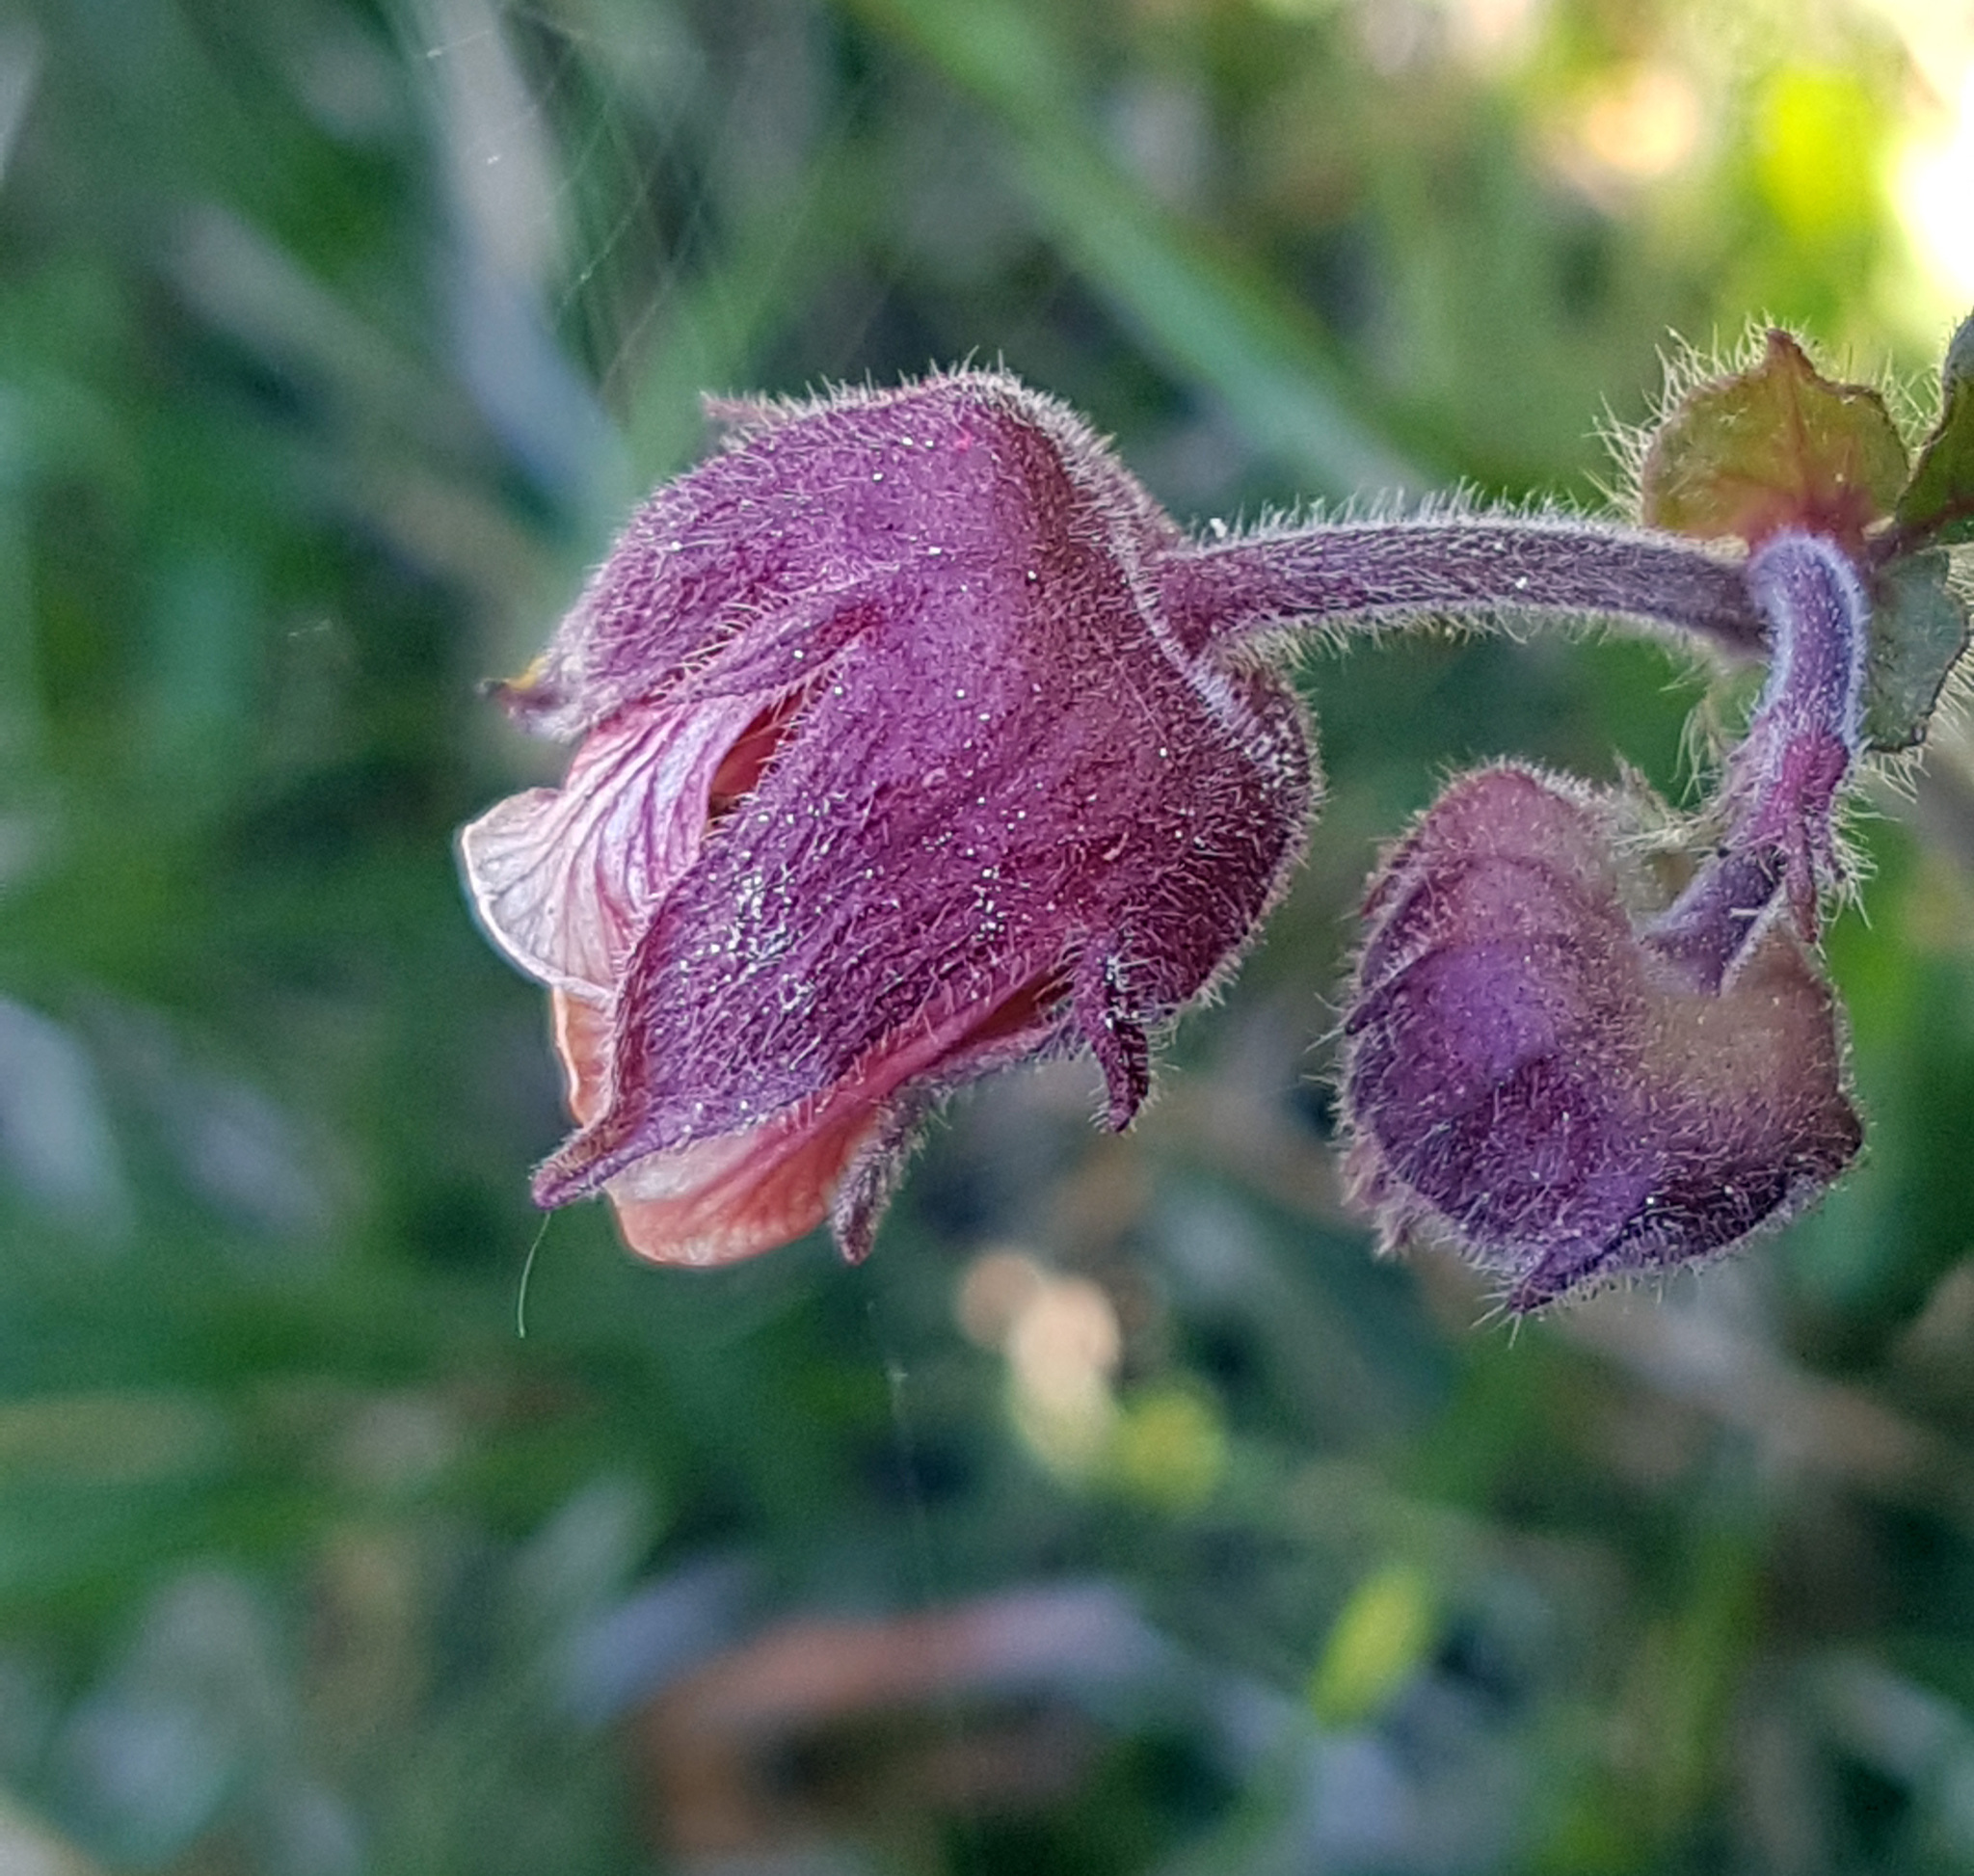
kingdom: Plantae
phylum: Tracheophyta
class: Magnoliopsida
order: Rosales
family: Rosaceae
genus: Geum
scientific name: Geum rivale
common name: Water avens
